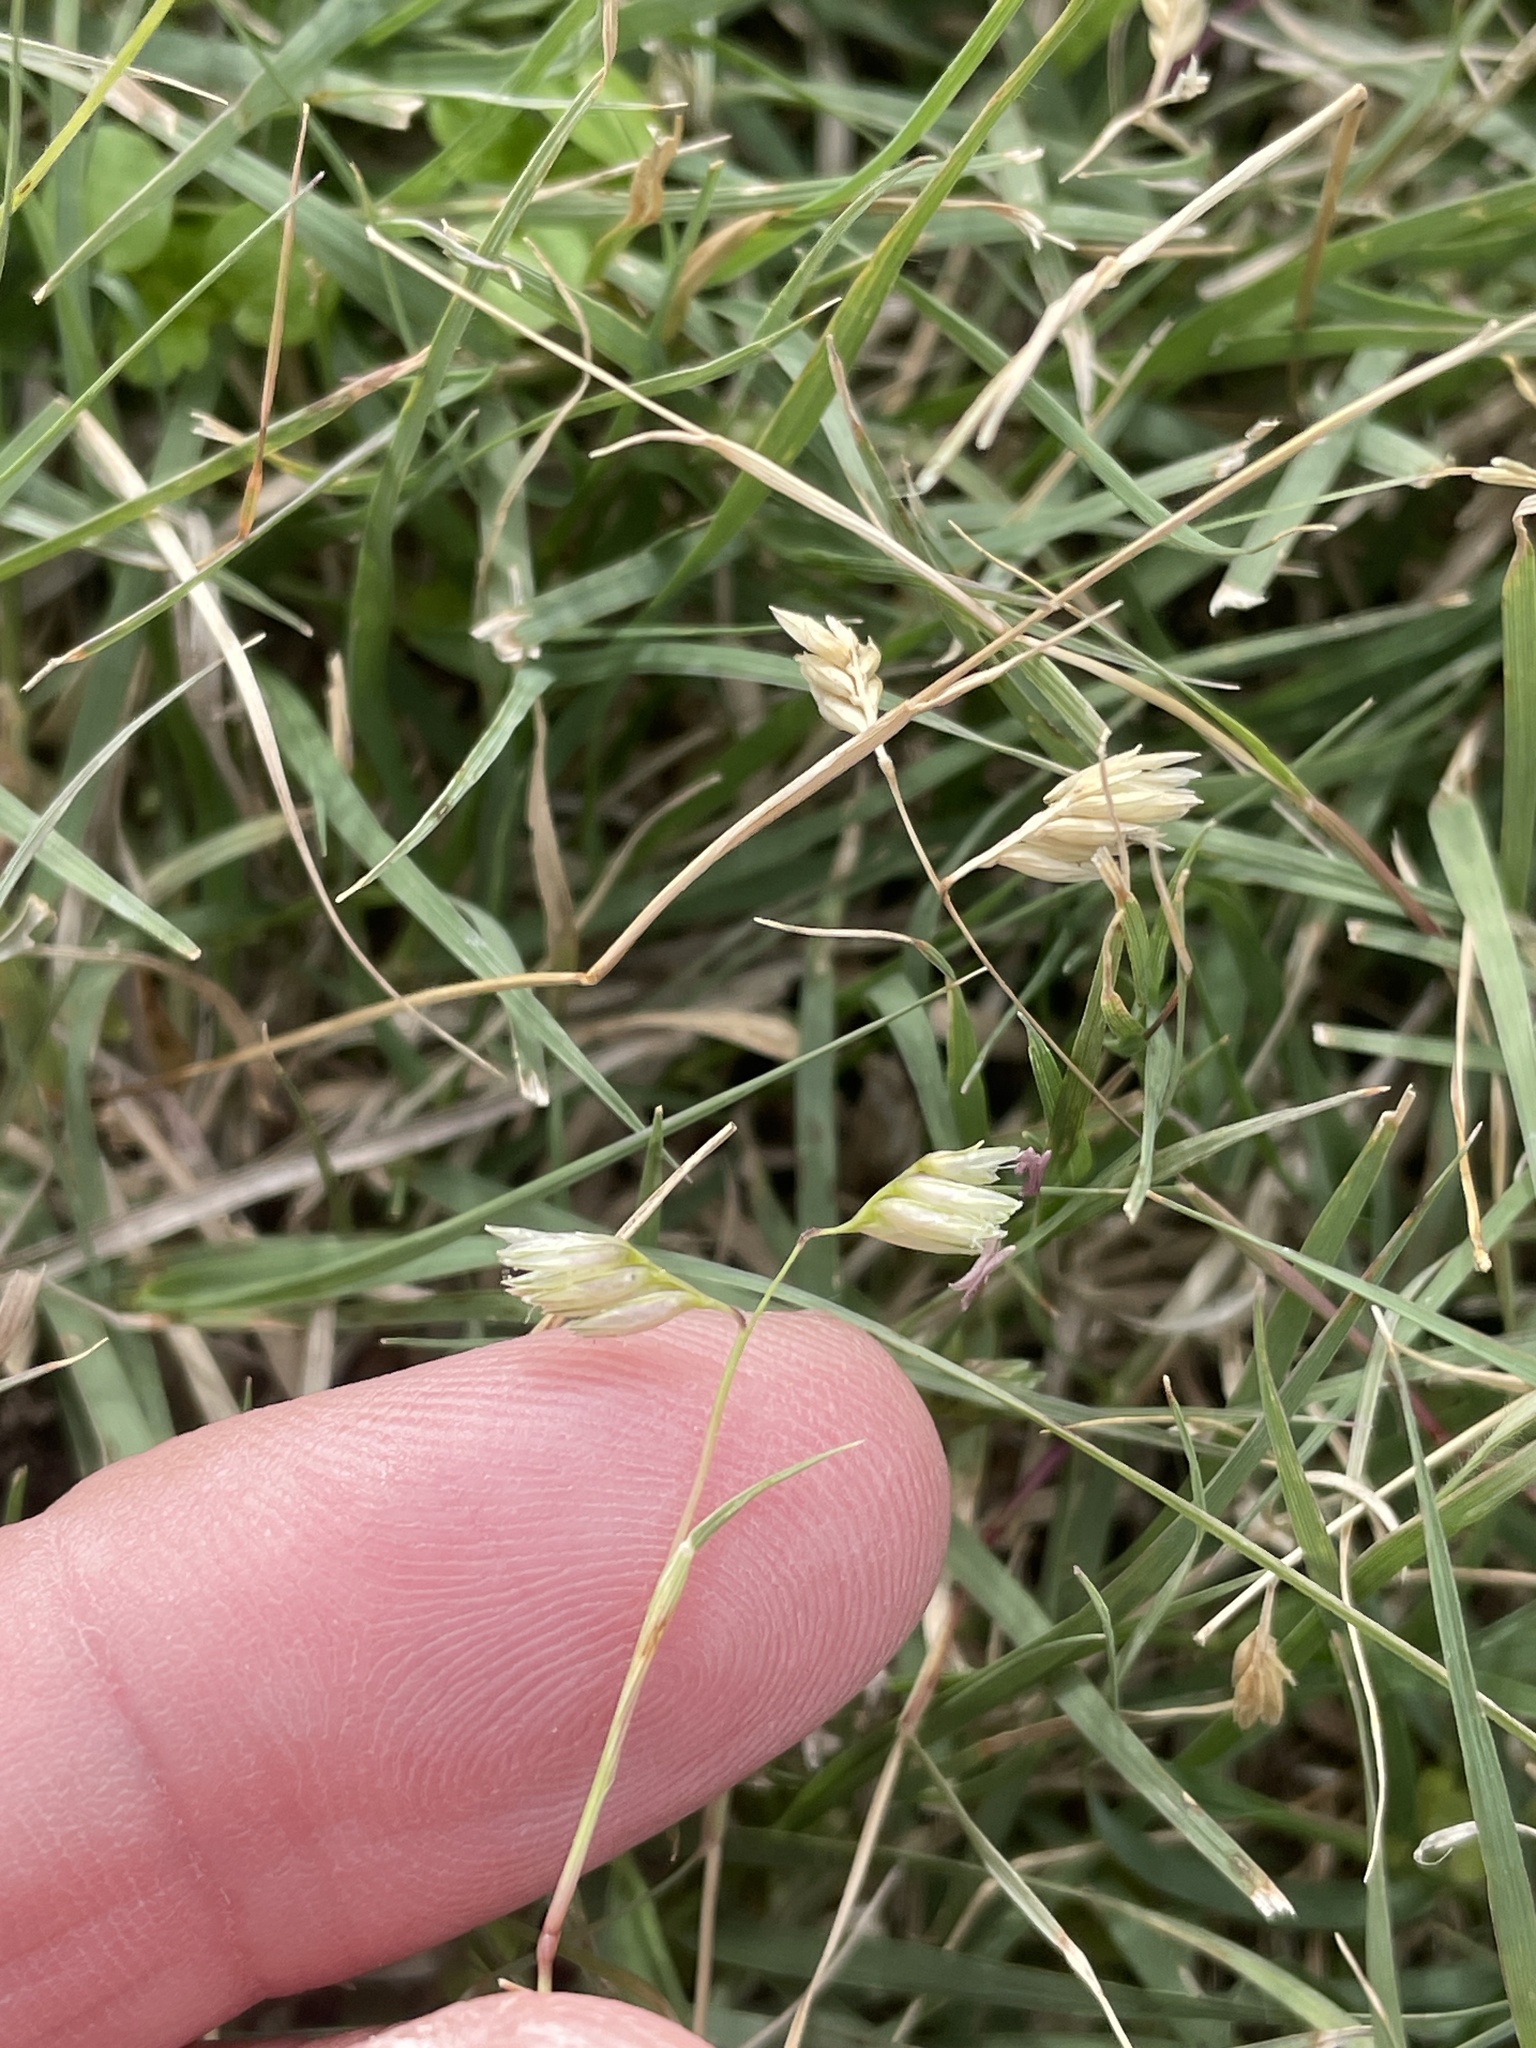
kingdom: Plantae
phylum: Tracheophyta
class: Liliopsida
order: Poales
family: Poaceae
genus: Bouteloua
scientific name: Bouteloua dactyloides
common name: Buffalo grass
